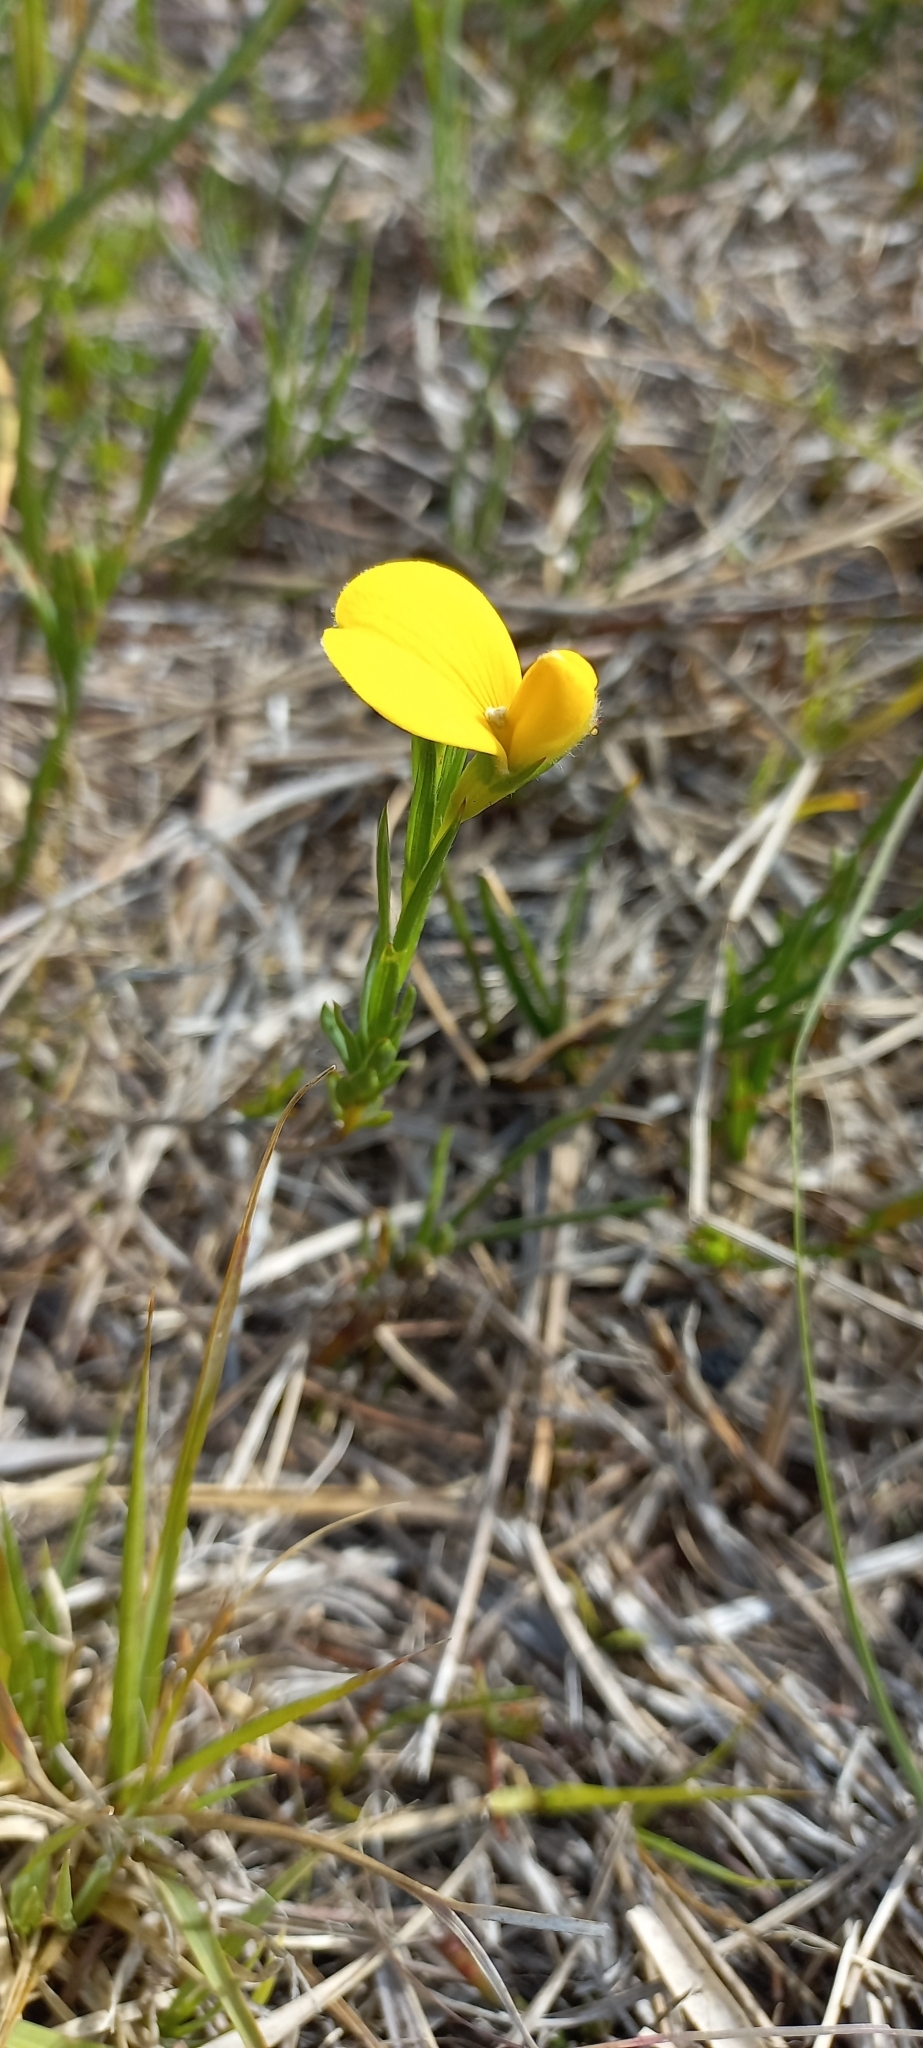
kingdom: Plantae
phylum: Tracheophyta
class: Magnoliopsida
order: Fabales
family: Fabaceae
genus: Aspalathus
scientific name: Aspalathus angustifolia
